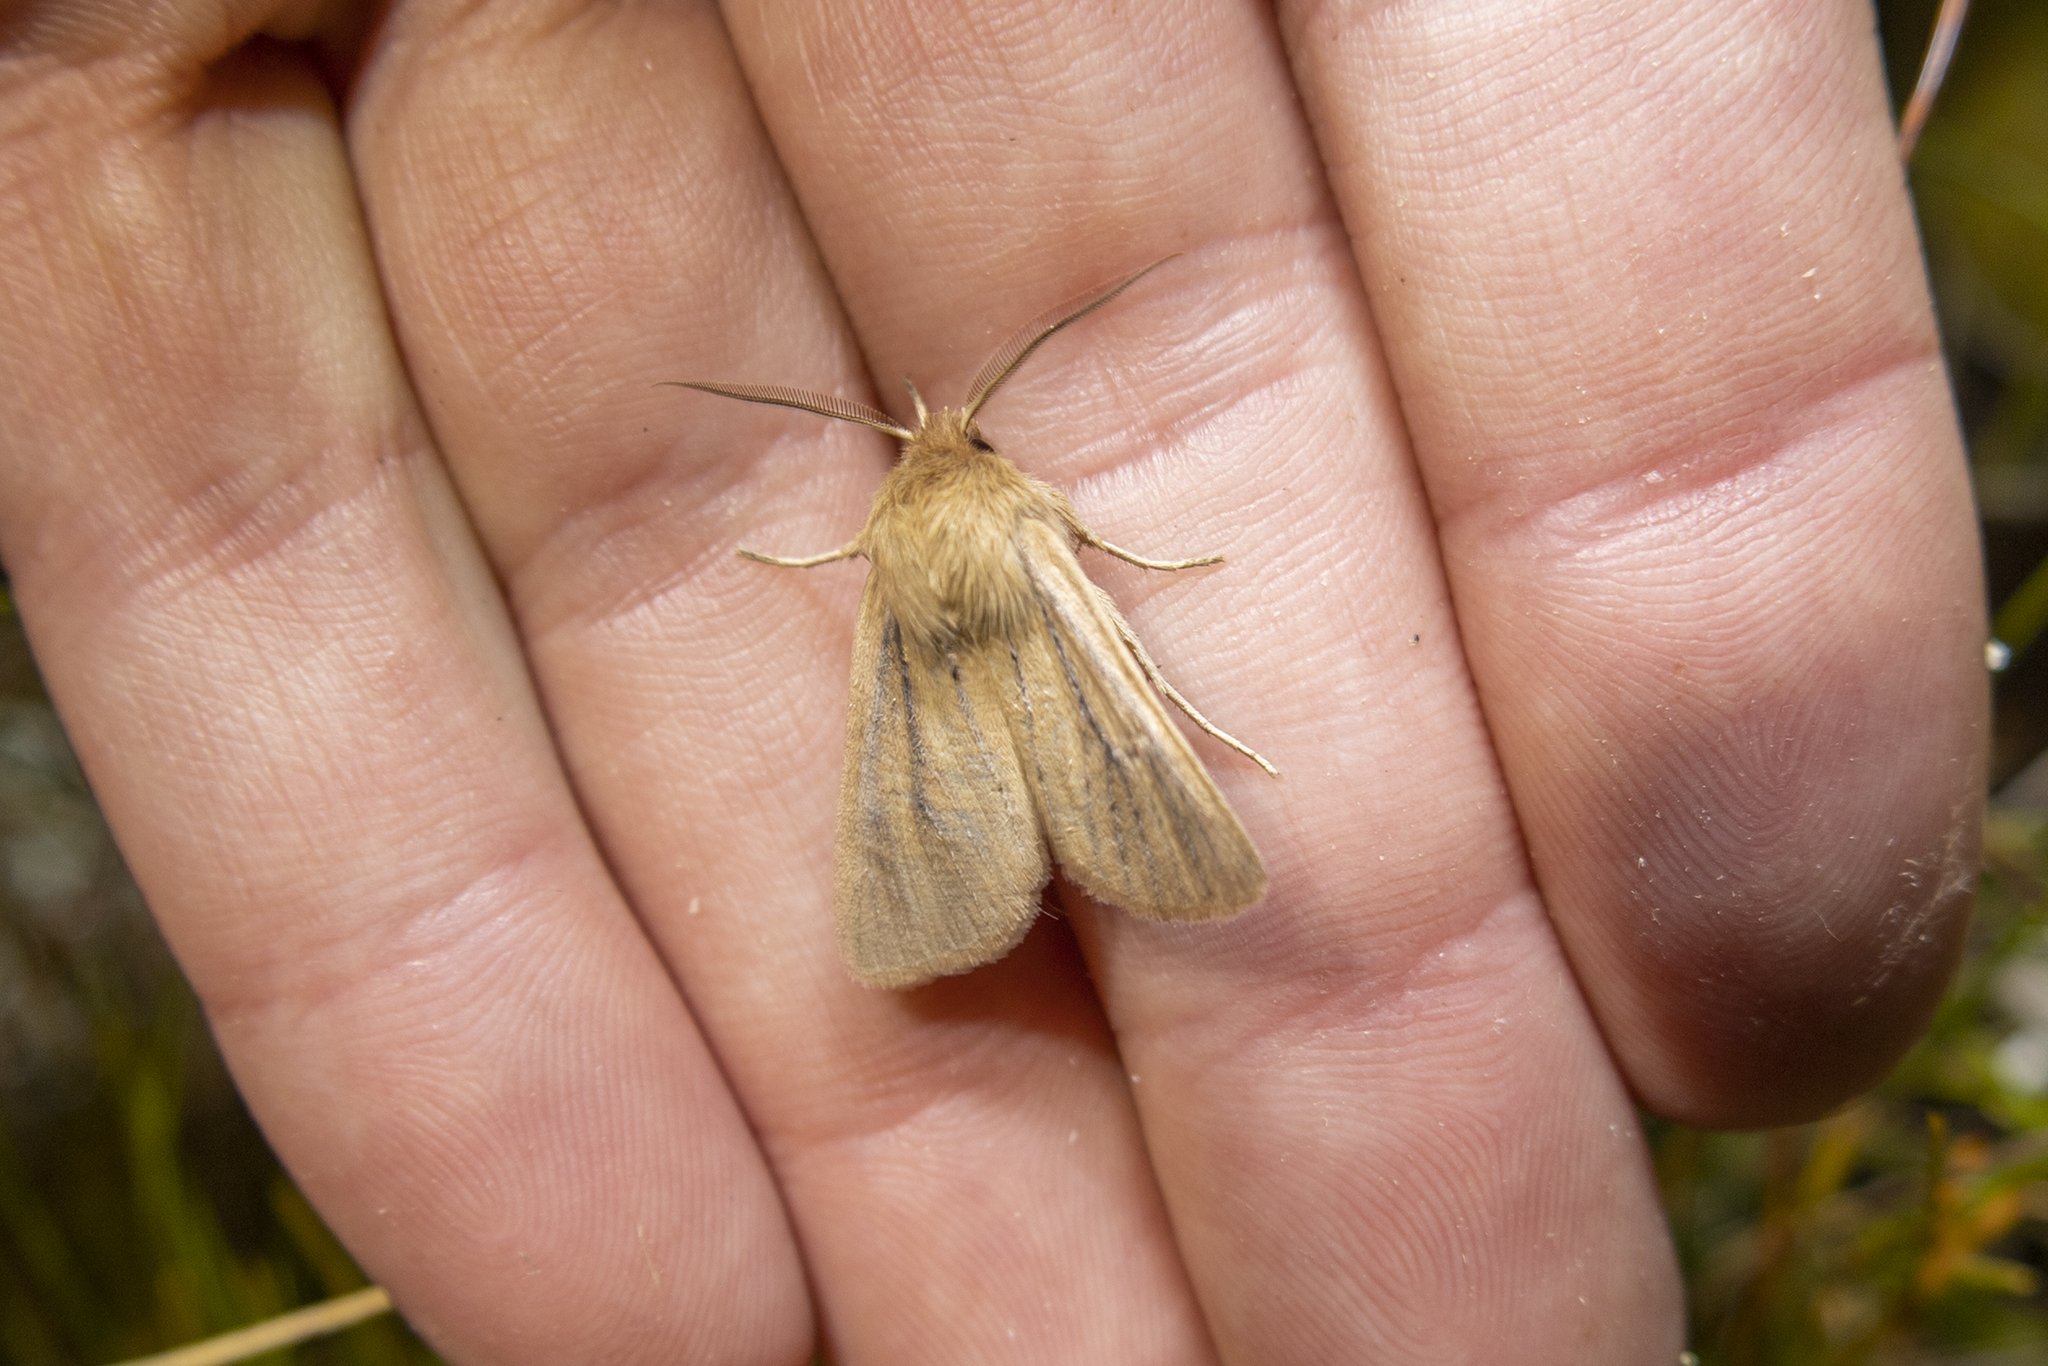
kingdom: Animalia
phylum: Arthropoda
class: Insecta
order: Lepidoptera
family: Noctuidae
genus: Ichneutica
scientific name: Ichneutica
